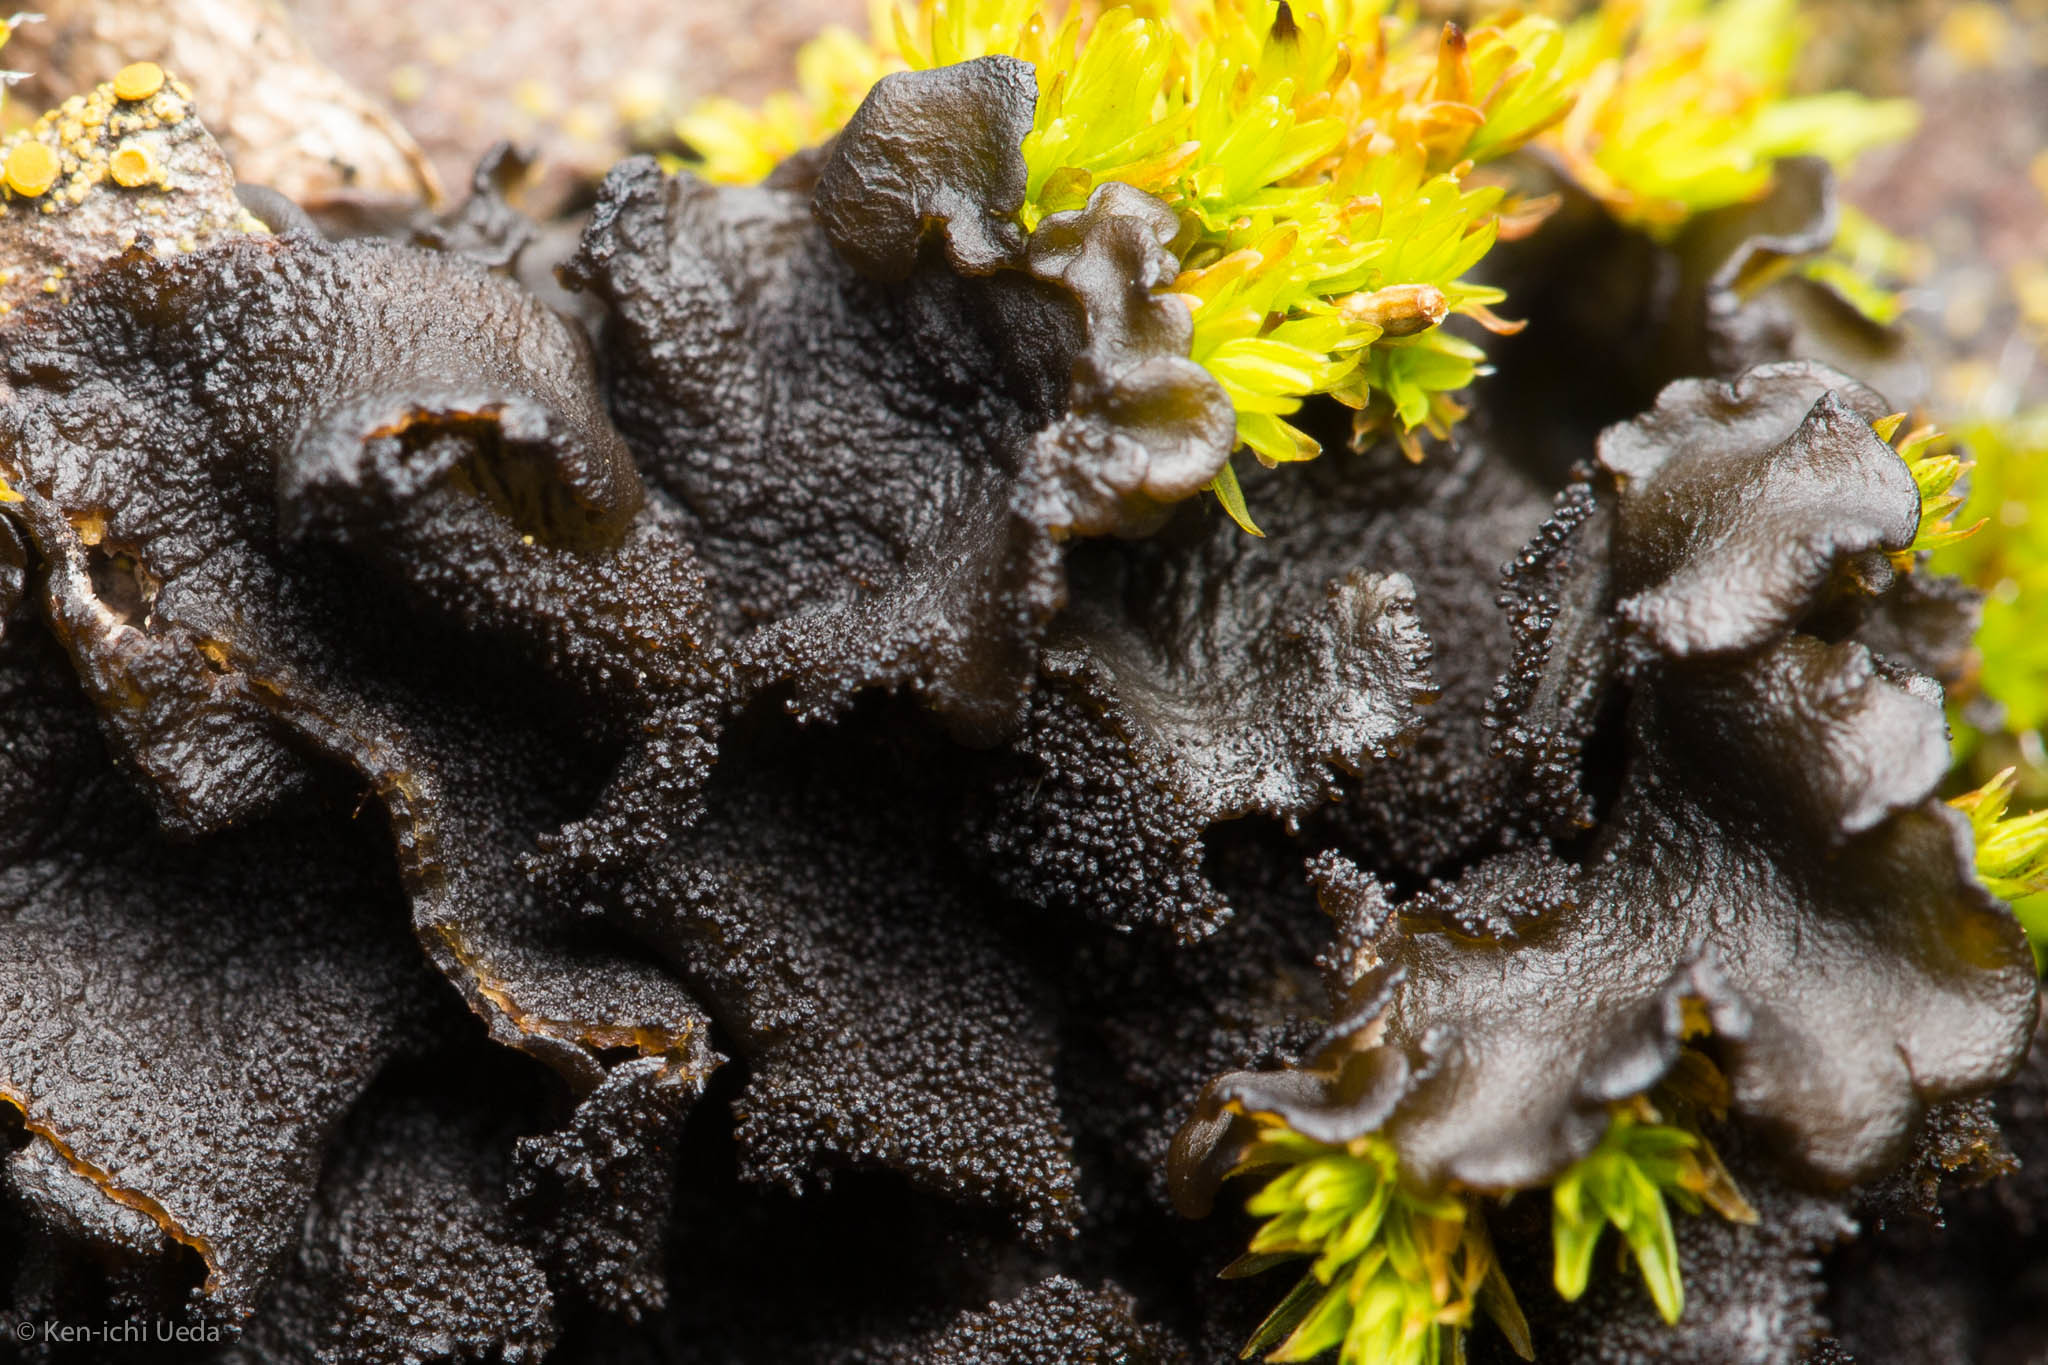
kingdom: Fungi
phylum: Ascomycota
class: Lecanoromycetes
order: Peltigerales
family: Collemataceae
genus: Leptogium
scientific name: Leptogium pseudofurfuraceum
